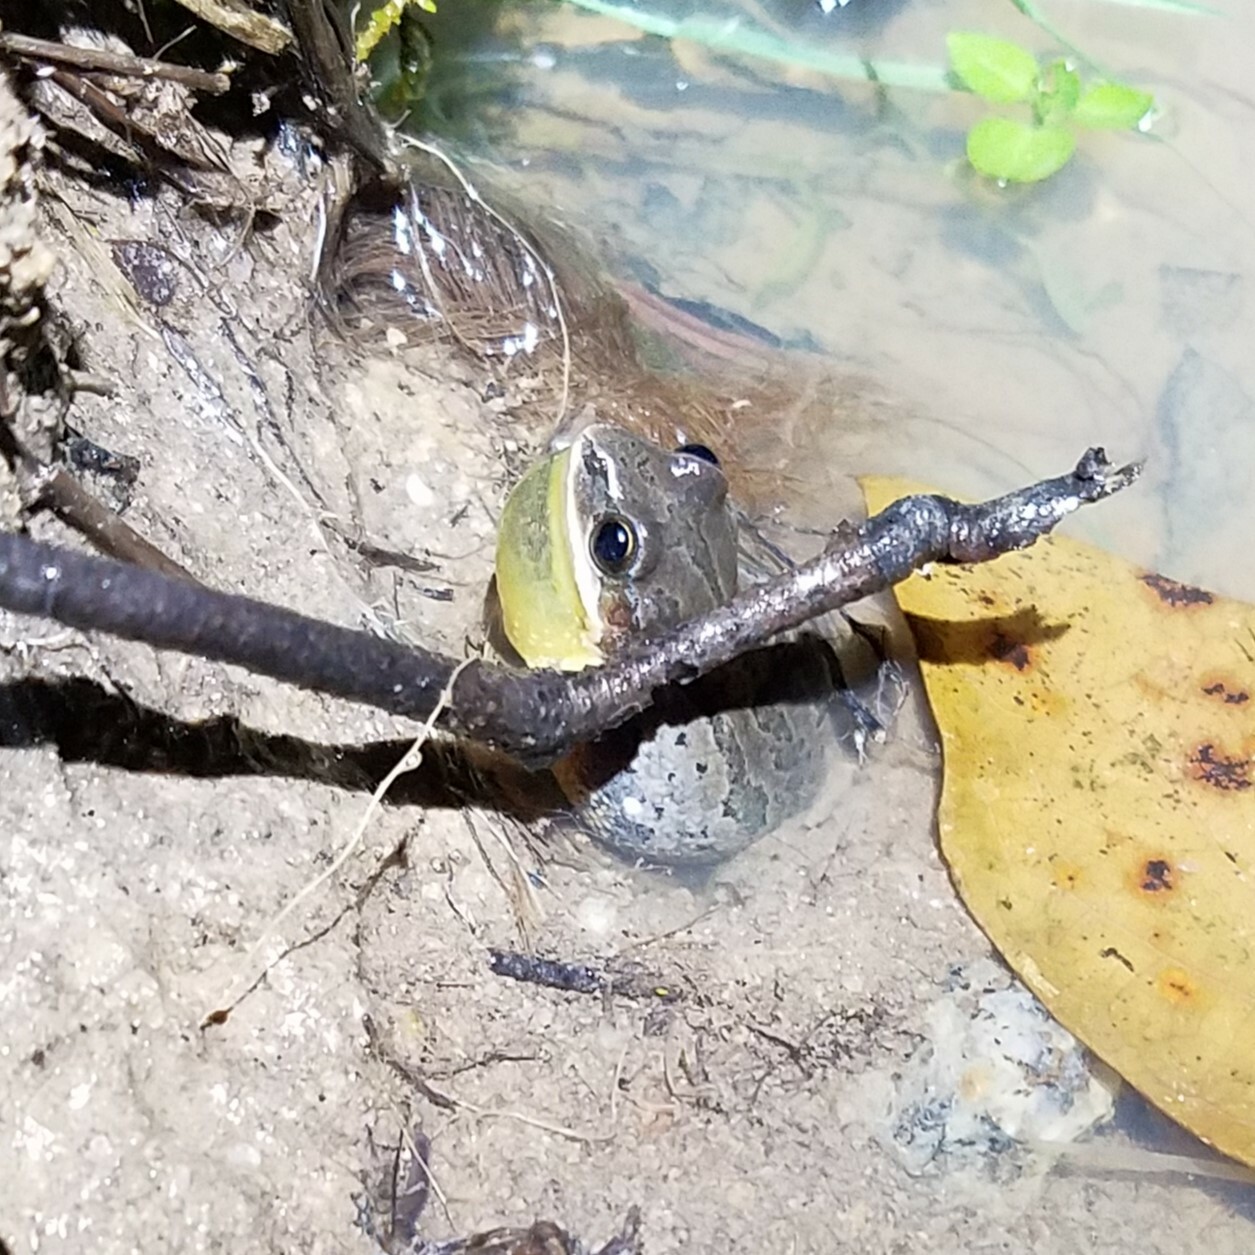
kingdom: Animalia
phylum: Chordata
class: Amphibia
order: Anura
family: Hylidae
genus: Pseudacris
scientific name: Pseudacris feriarum
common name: Upland chorus frog
